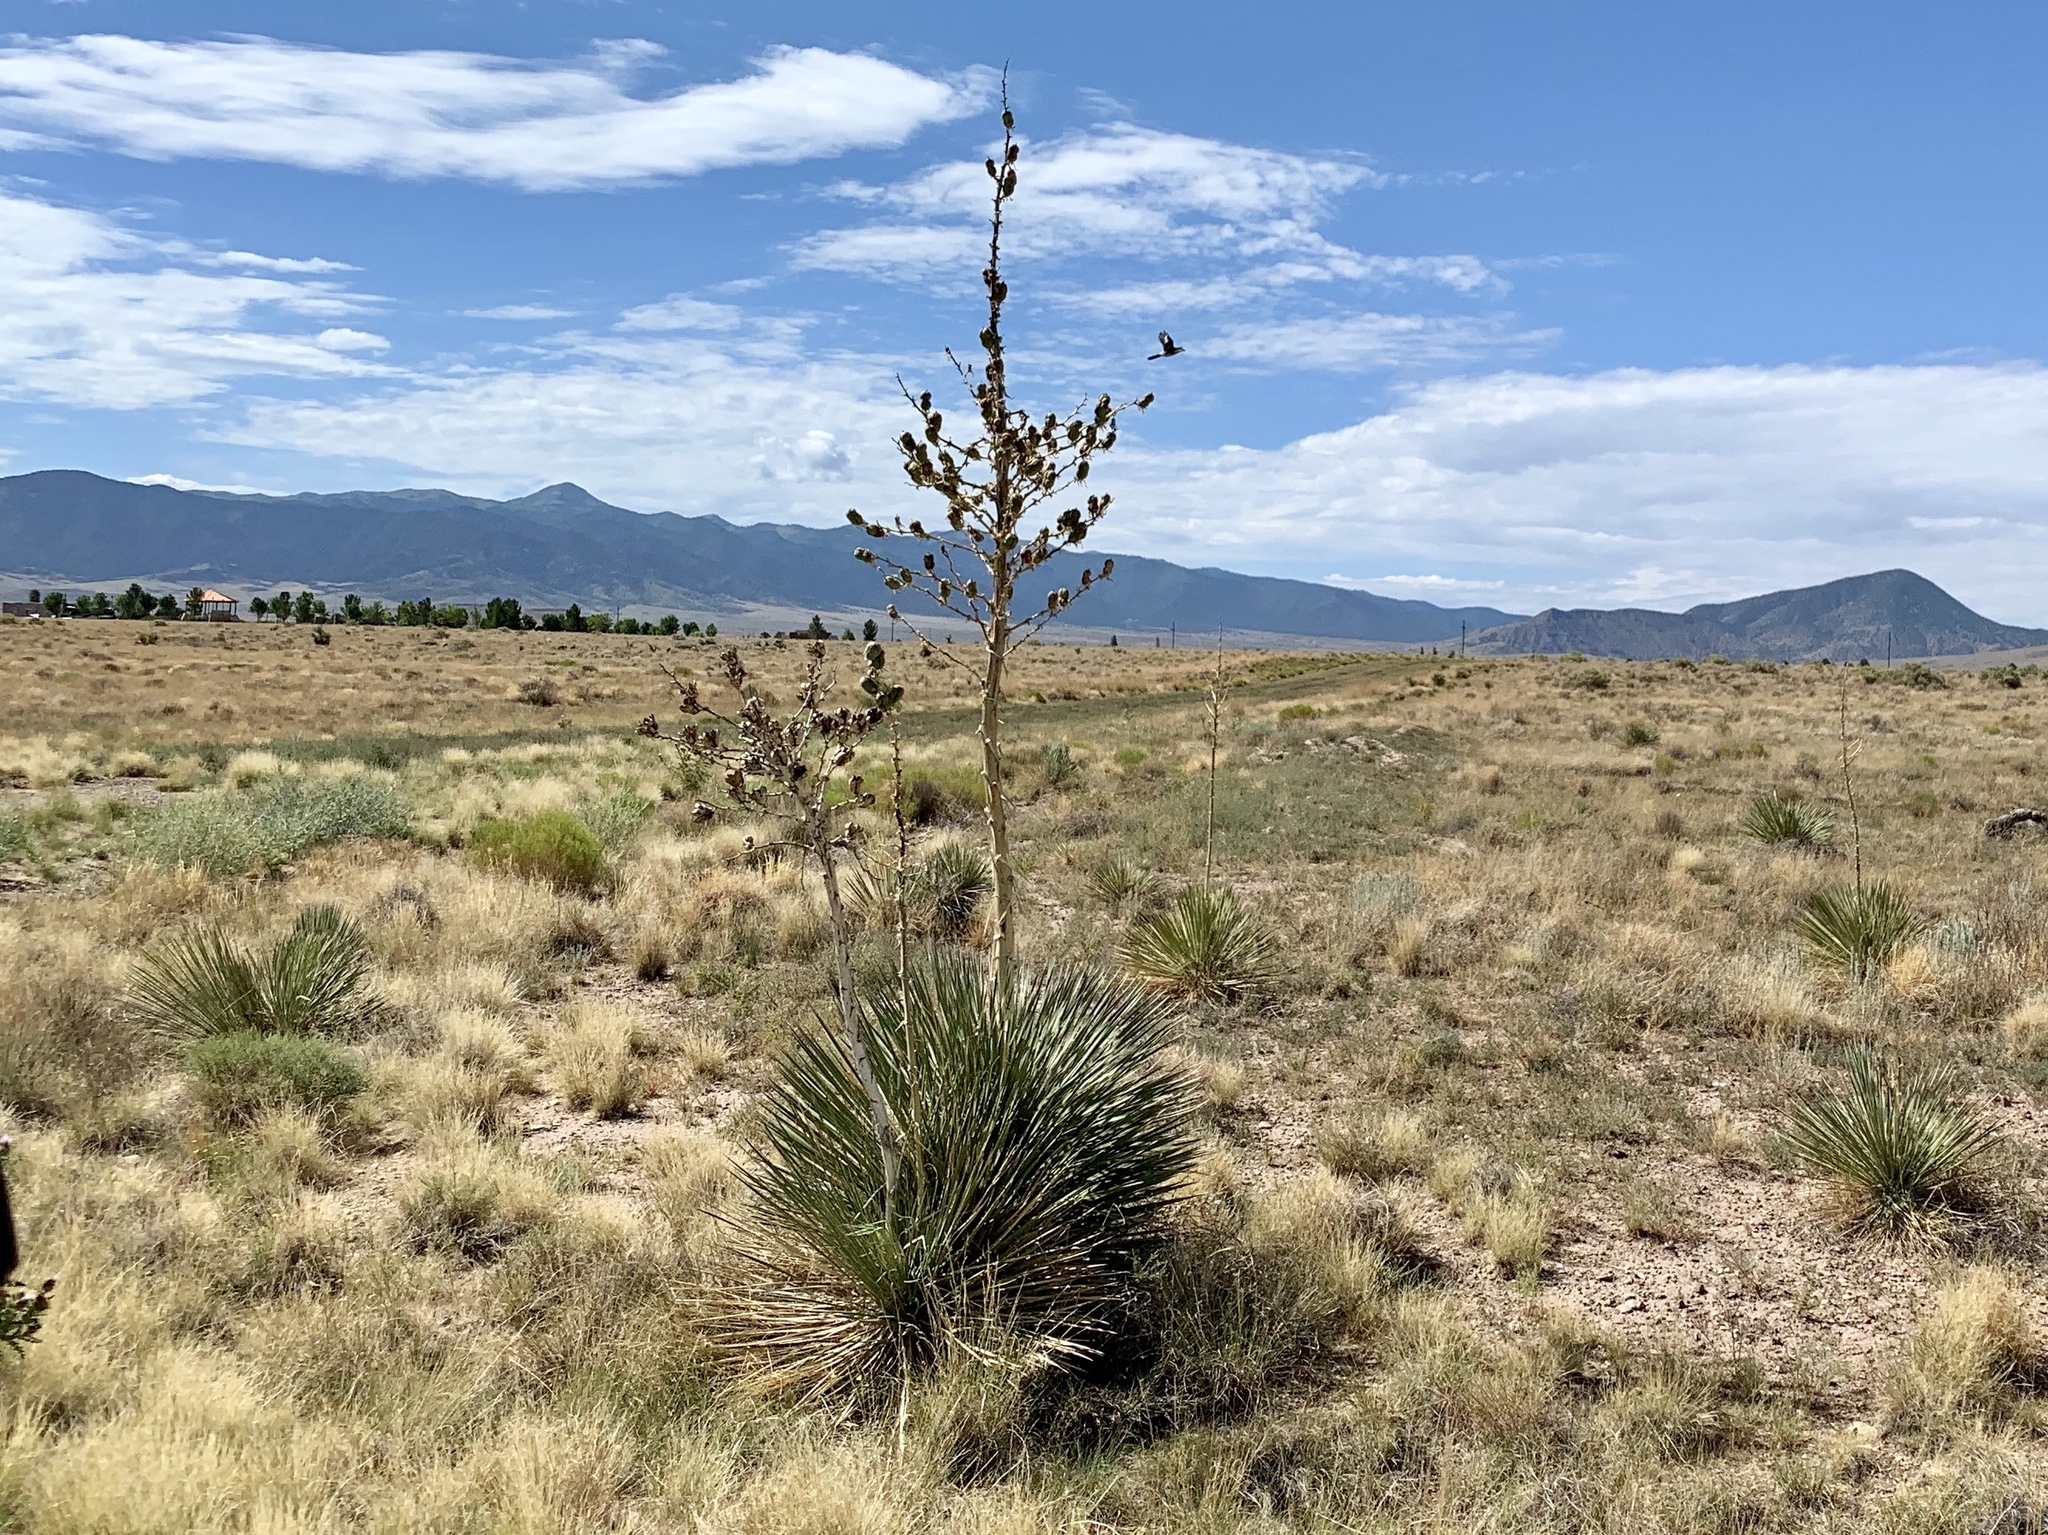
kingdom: Plantae
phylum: Tracheophyta
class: Liliopsida
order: Asparagales
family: Asparagaceae
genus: Yucca
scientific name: Yucca elata
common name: Palmella
